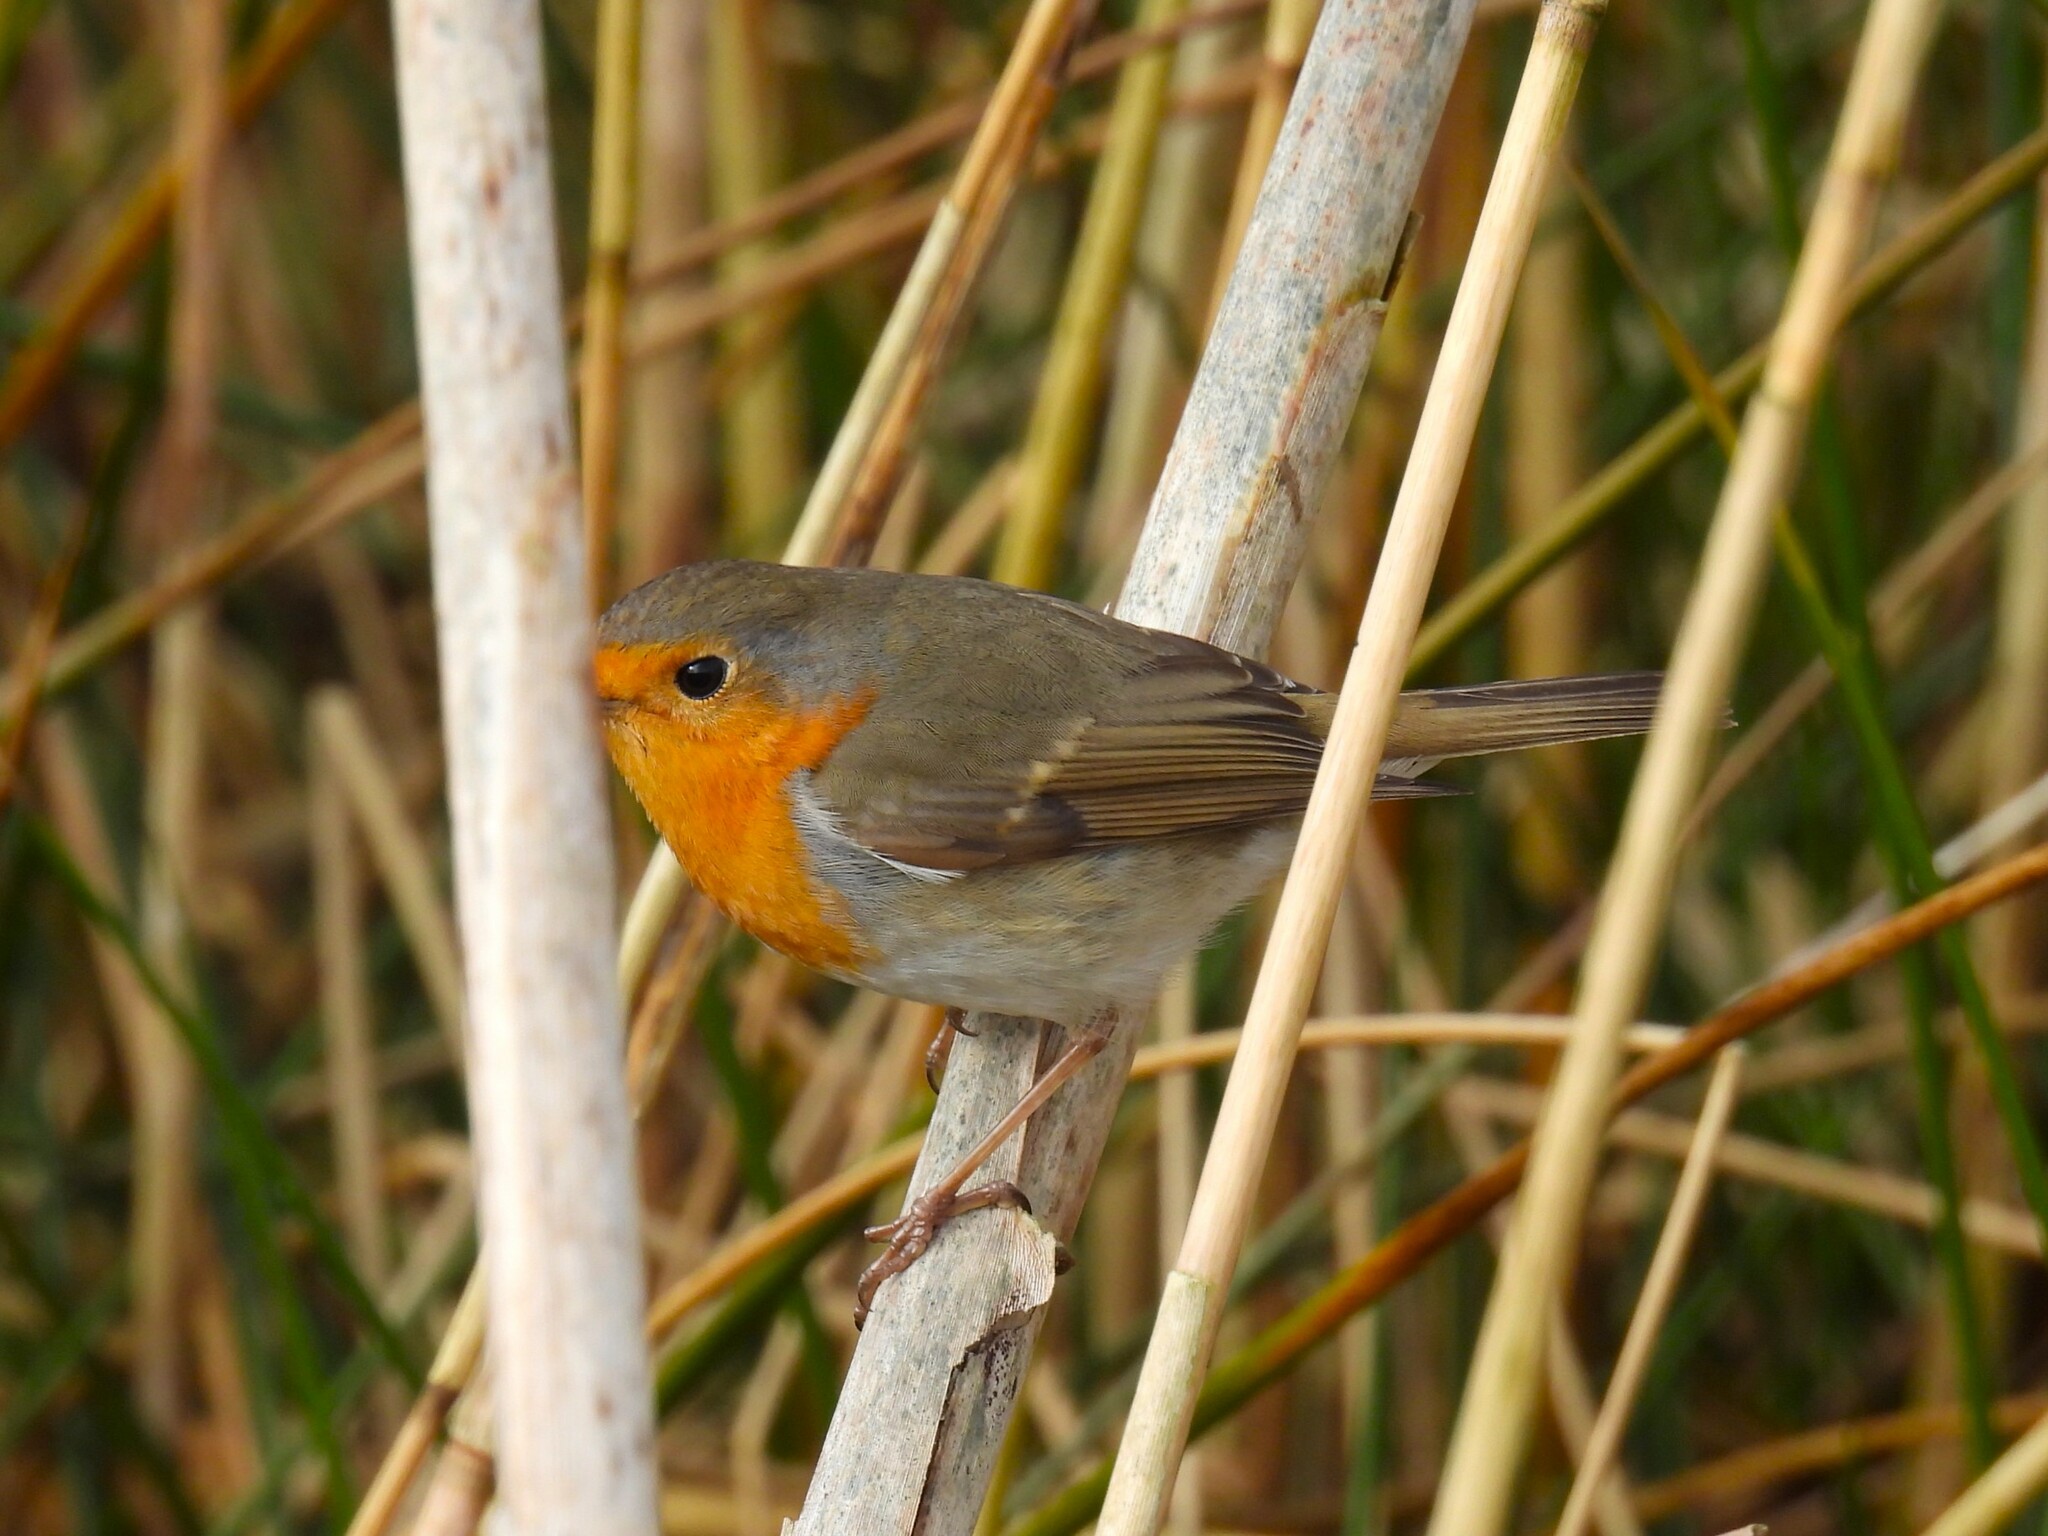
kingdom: Animalia
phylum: Chordata
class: Aves
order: Passeriformes
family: Muscicapidae
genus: Erithacus
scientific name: Erithacus rubecula
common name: European robin
